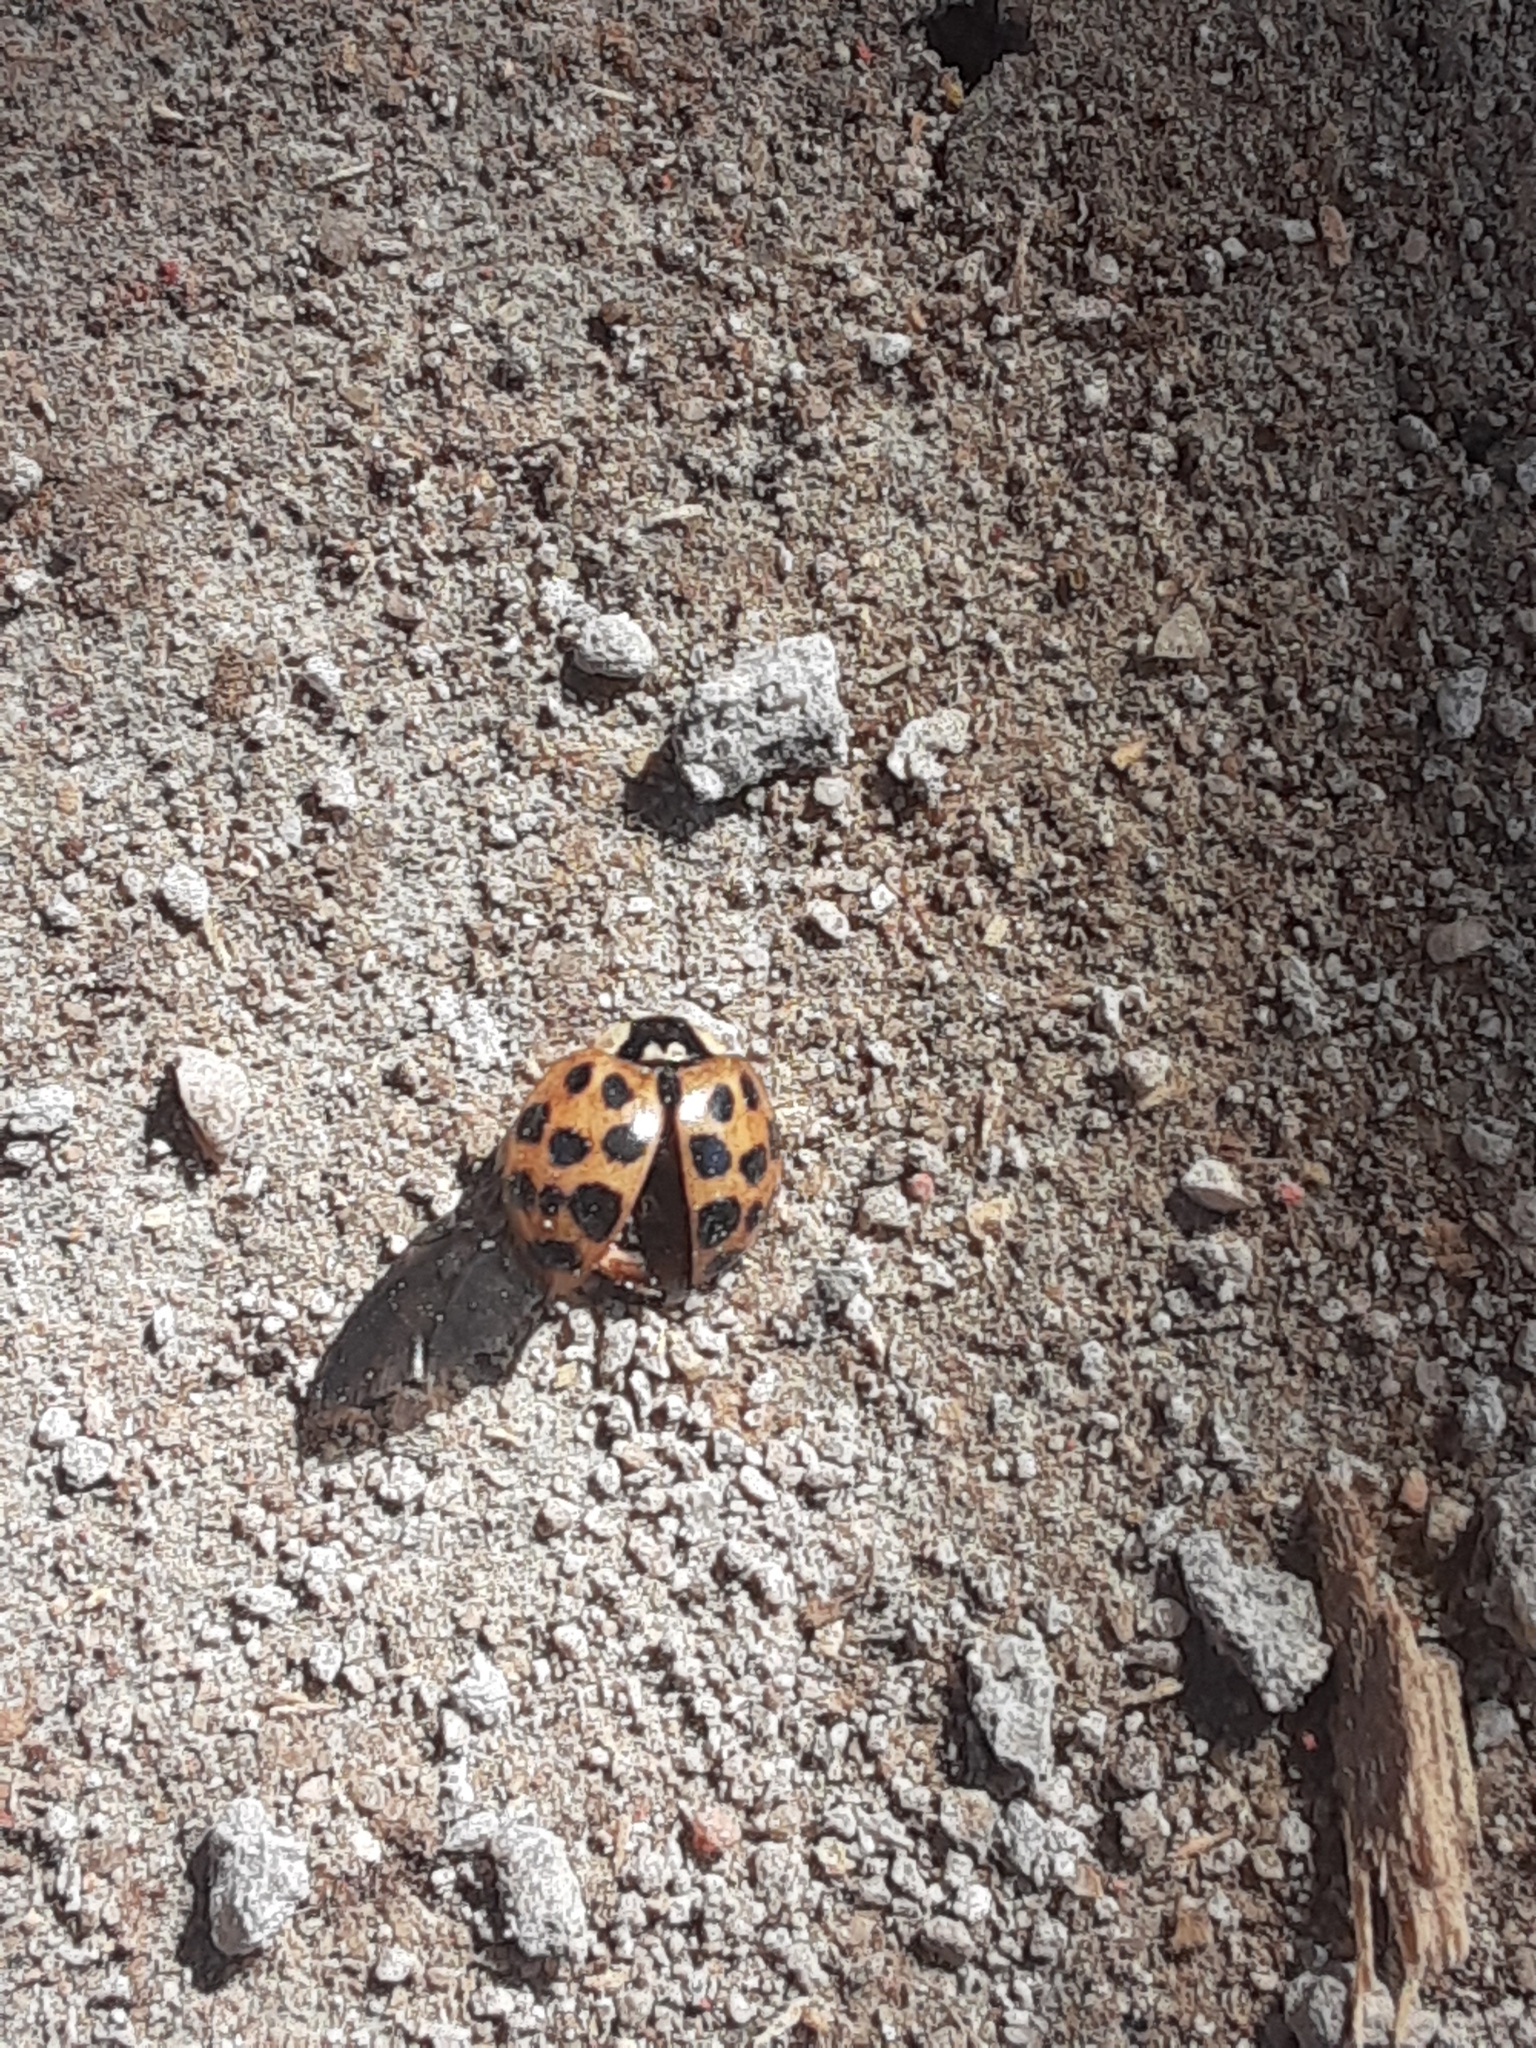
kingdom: Animalia
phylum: Arthropoda
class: Insecta
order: Coleoptera
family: Coccinellidae
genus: Harmonia
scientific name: Harmonia axyridis
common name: Harlequin ladybird
